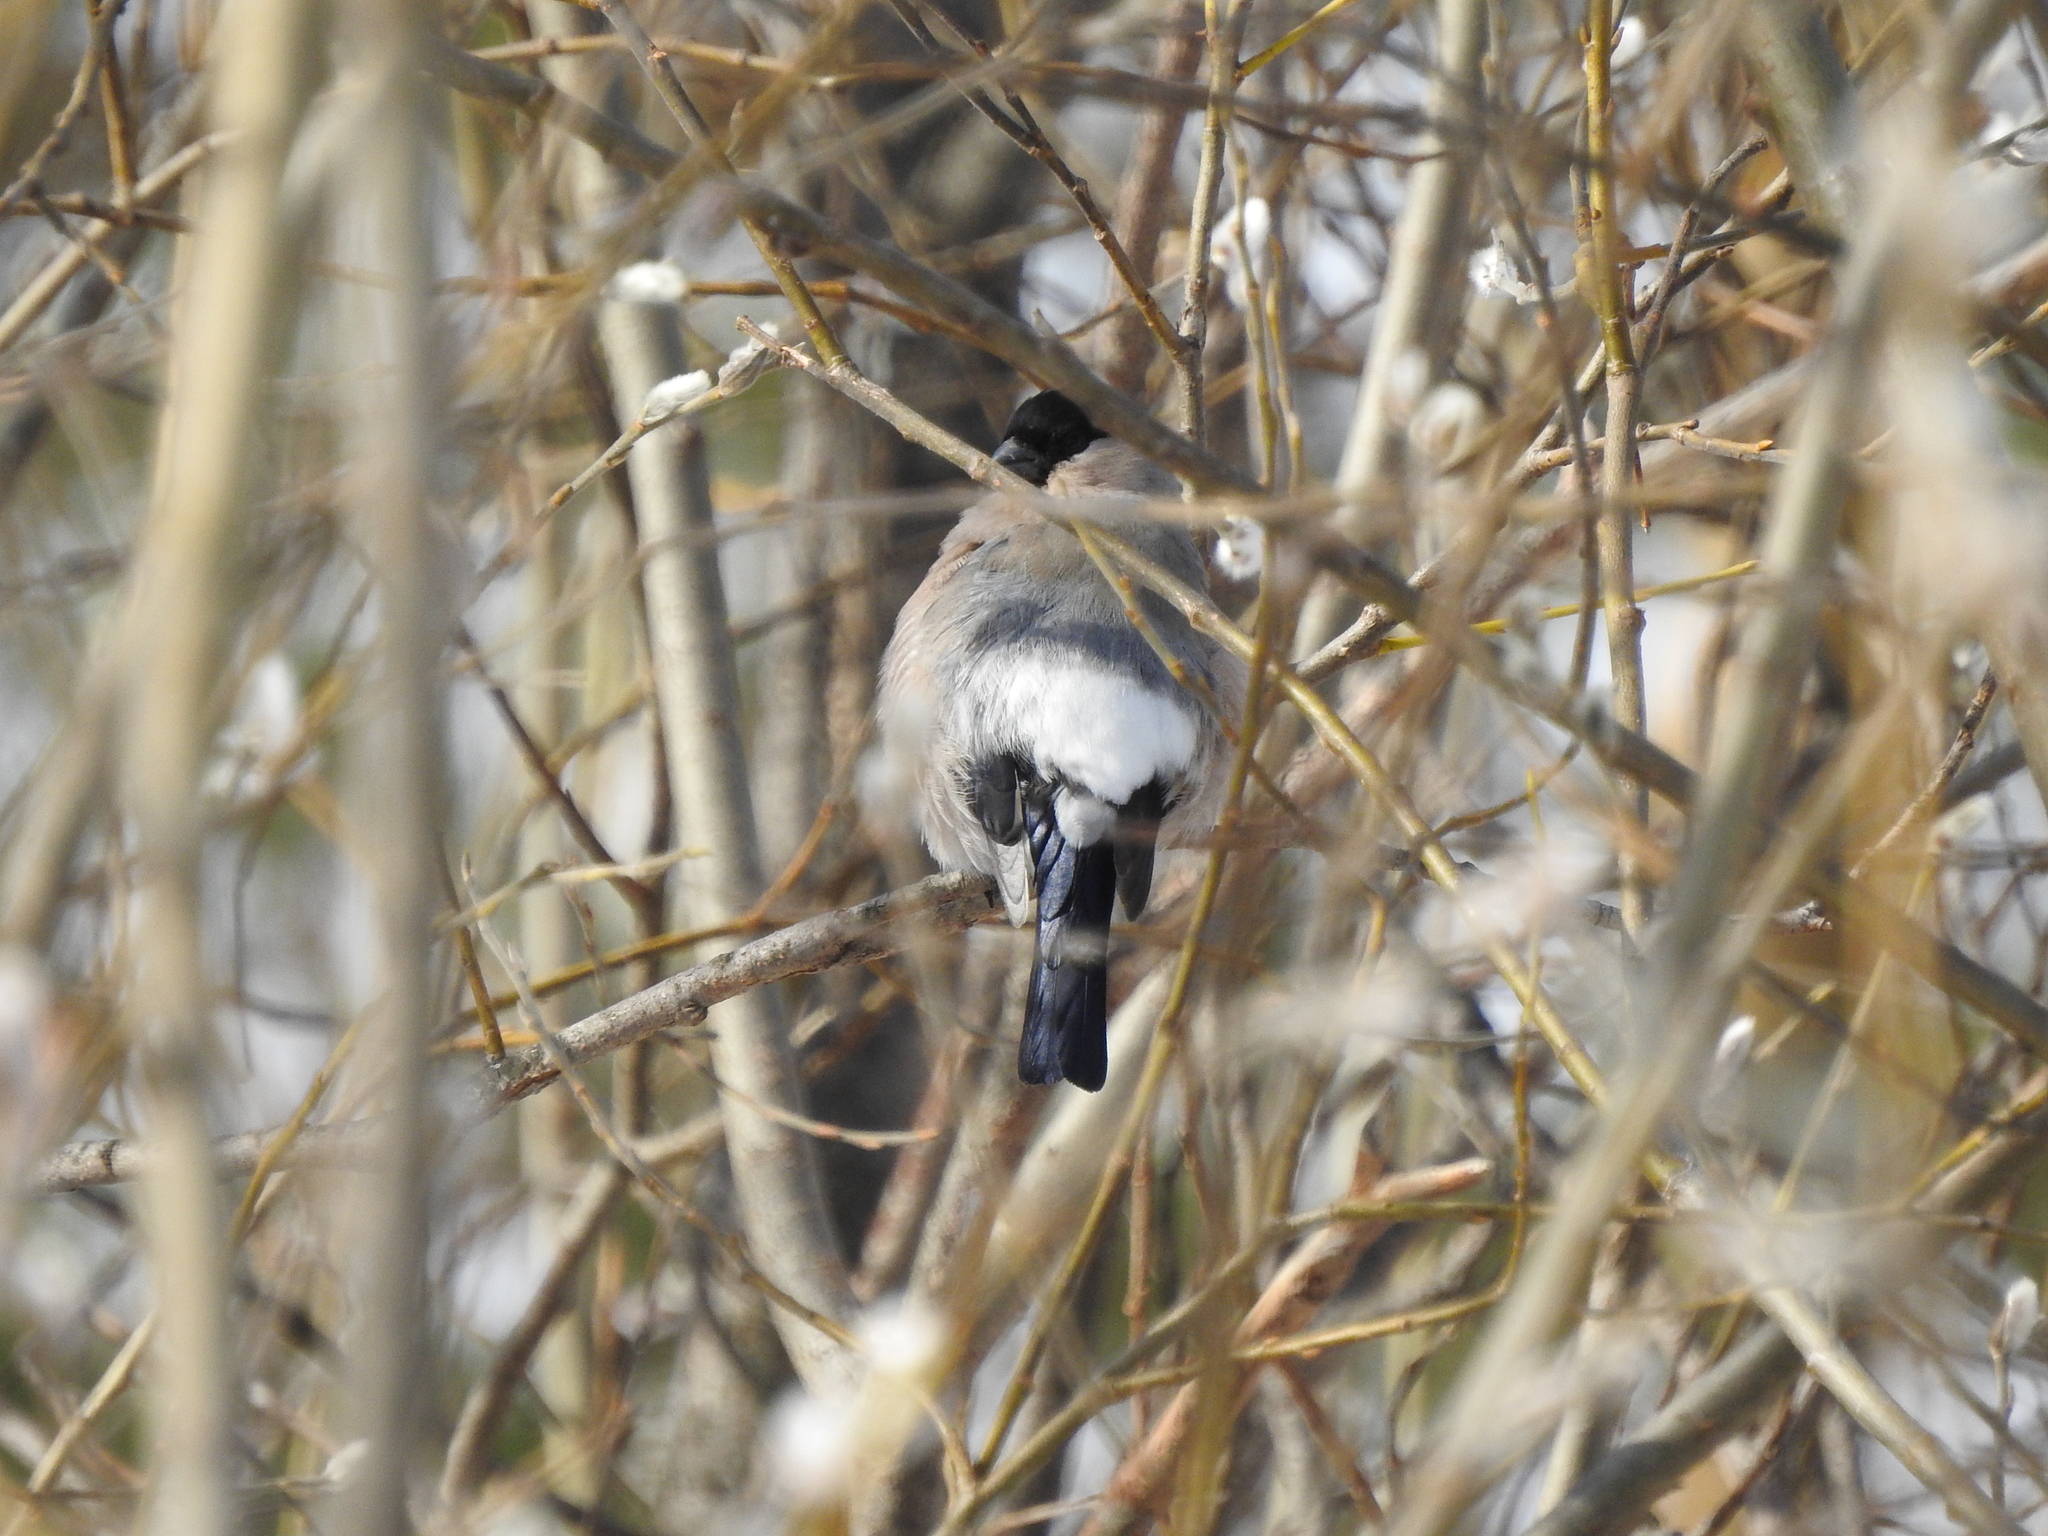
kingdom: Animalia
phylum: Chordata
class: Aves
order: Passeriformes
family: Fringillidae
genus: Pyrrhula
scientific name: Pyrrhula pyrrhula
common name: Eurasian bullfinch
